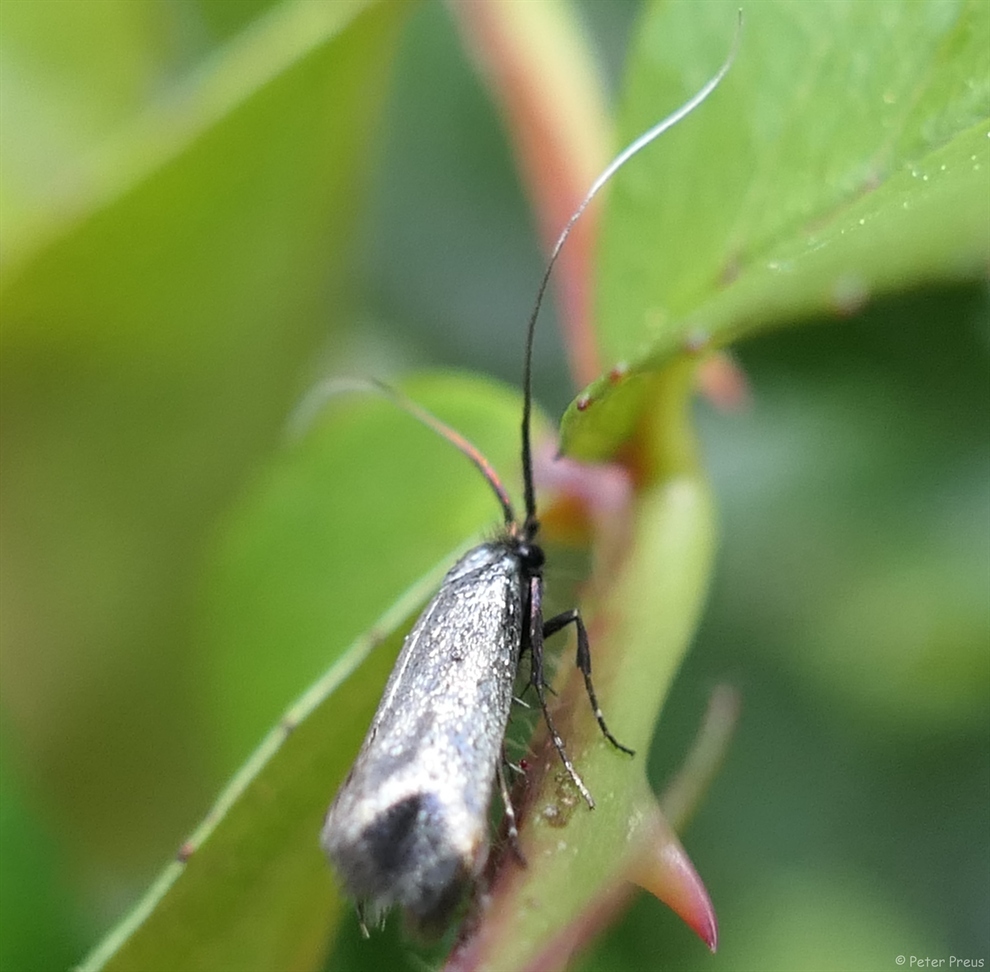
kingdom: Animalia
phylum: Arthropoda
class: Insecta
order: Lepidoptera
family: Adelidae
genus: Adela
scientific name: Adela viridella
